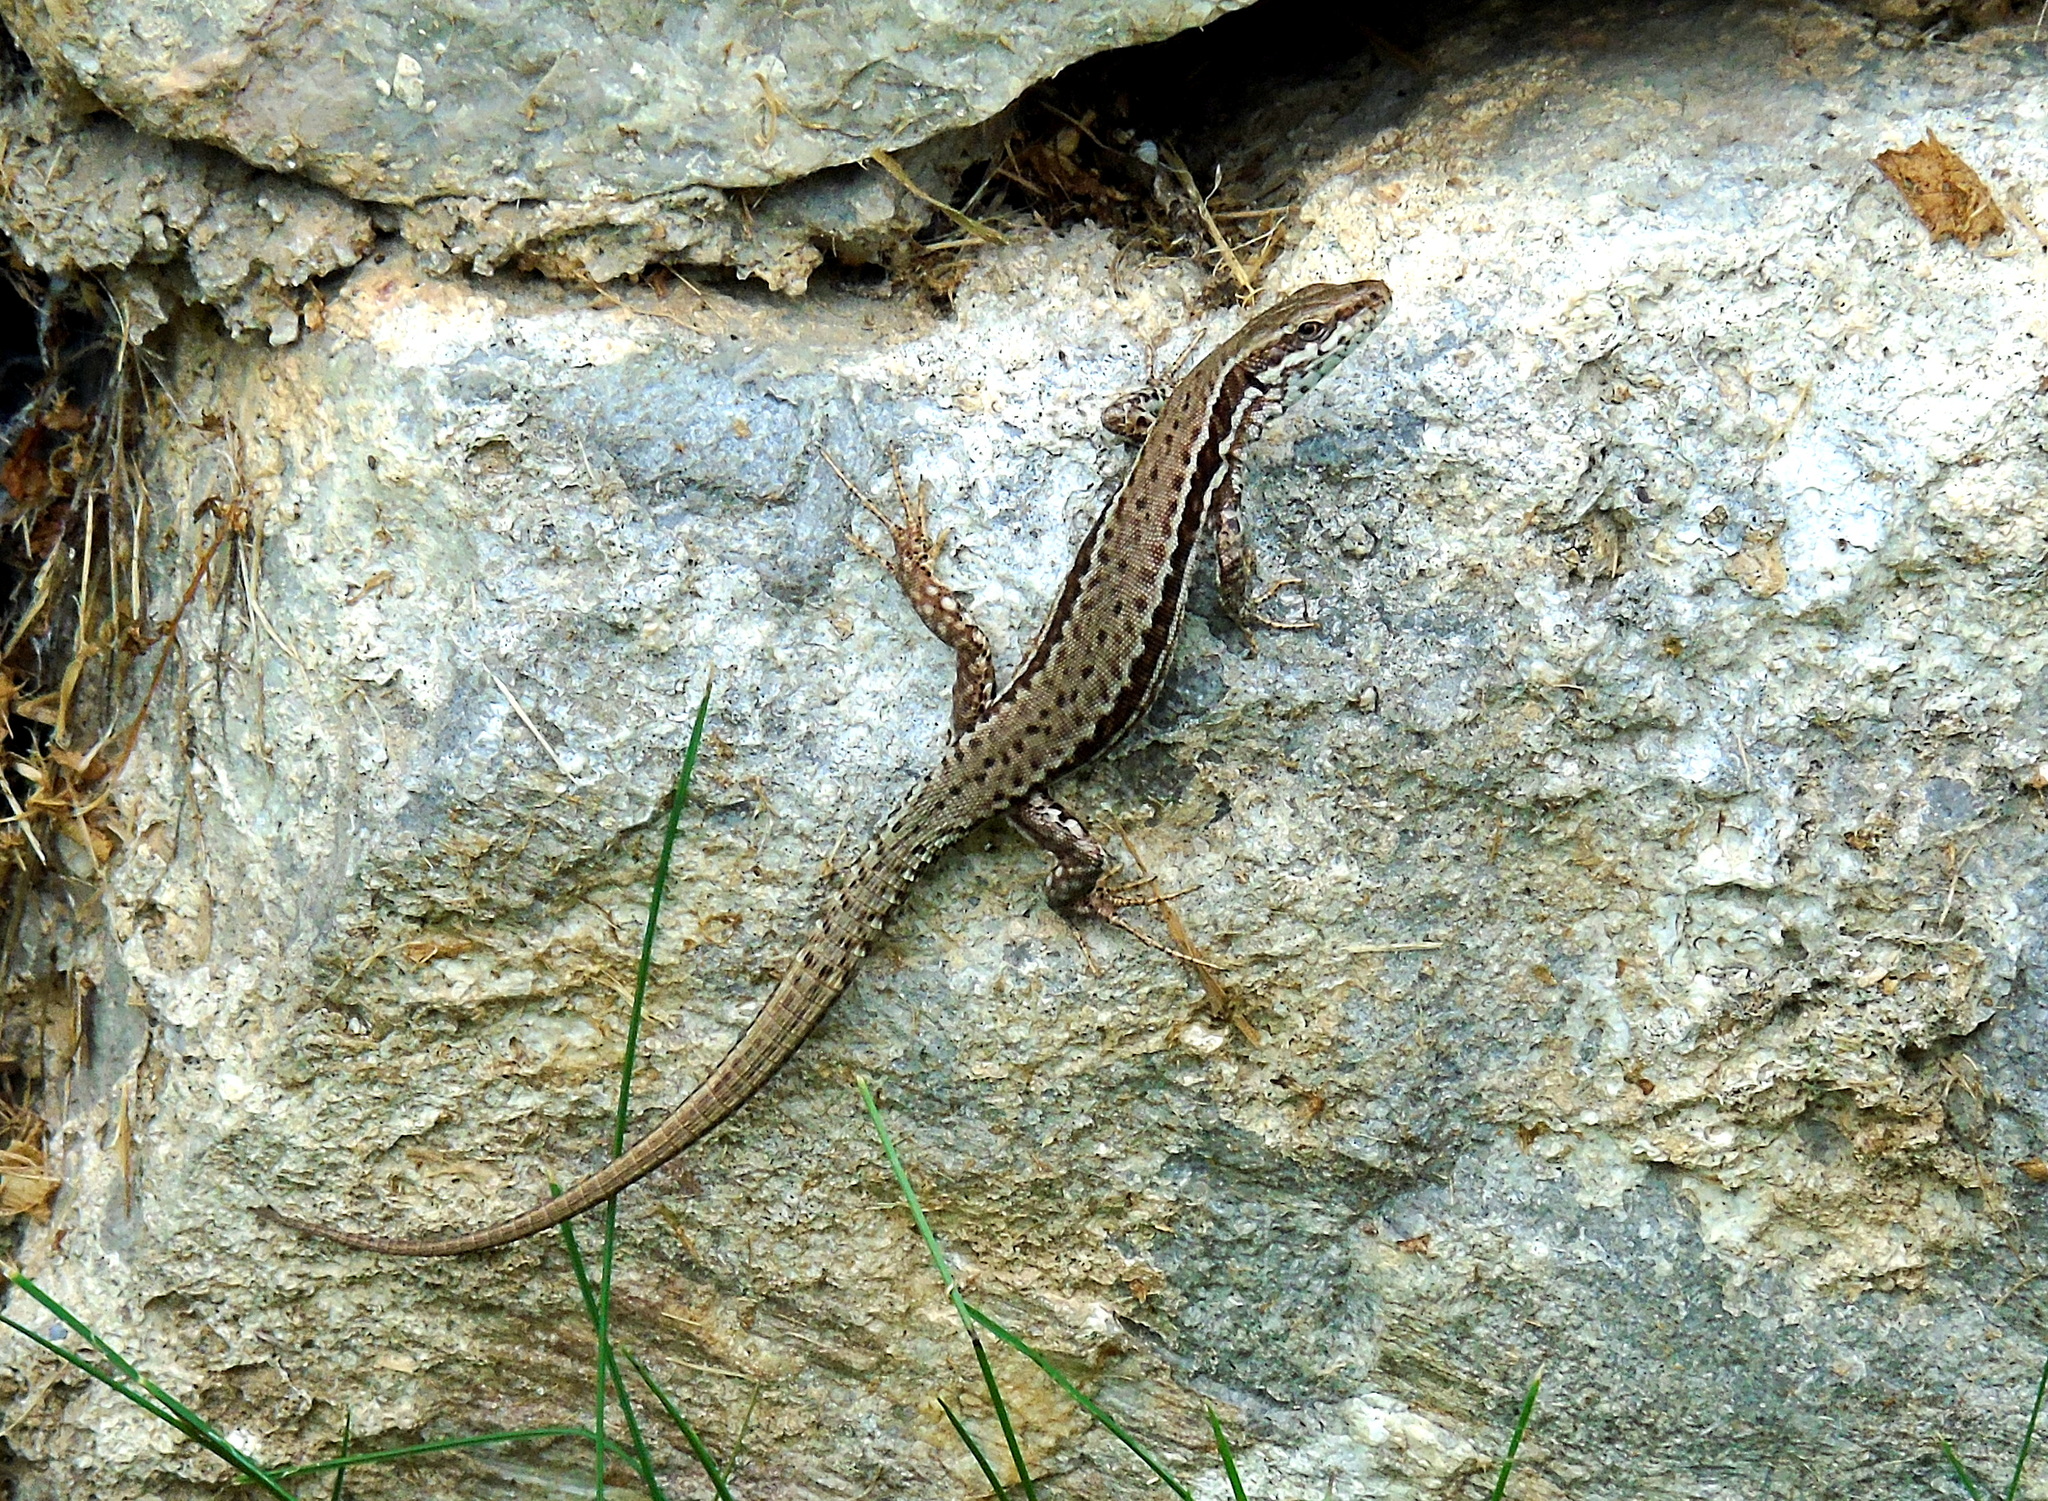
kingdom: Animalia
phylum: Chordata
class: Squamata
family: Lacertidae
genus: Podarcis
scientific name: Podarcis muralis
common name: Common wall lizard
